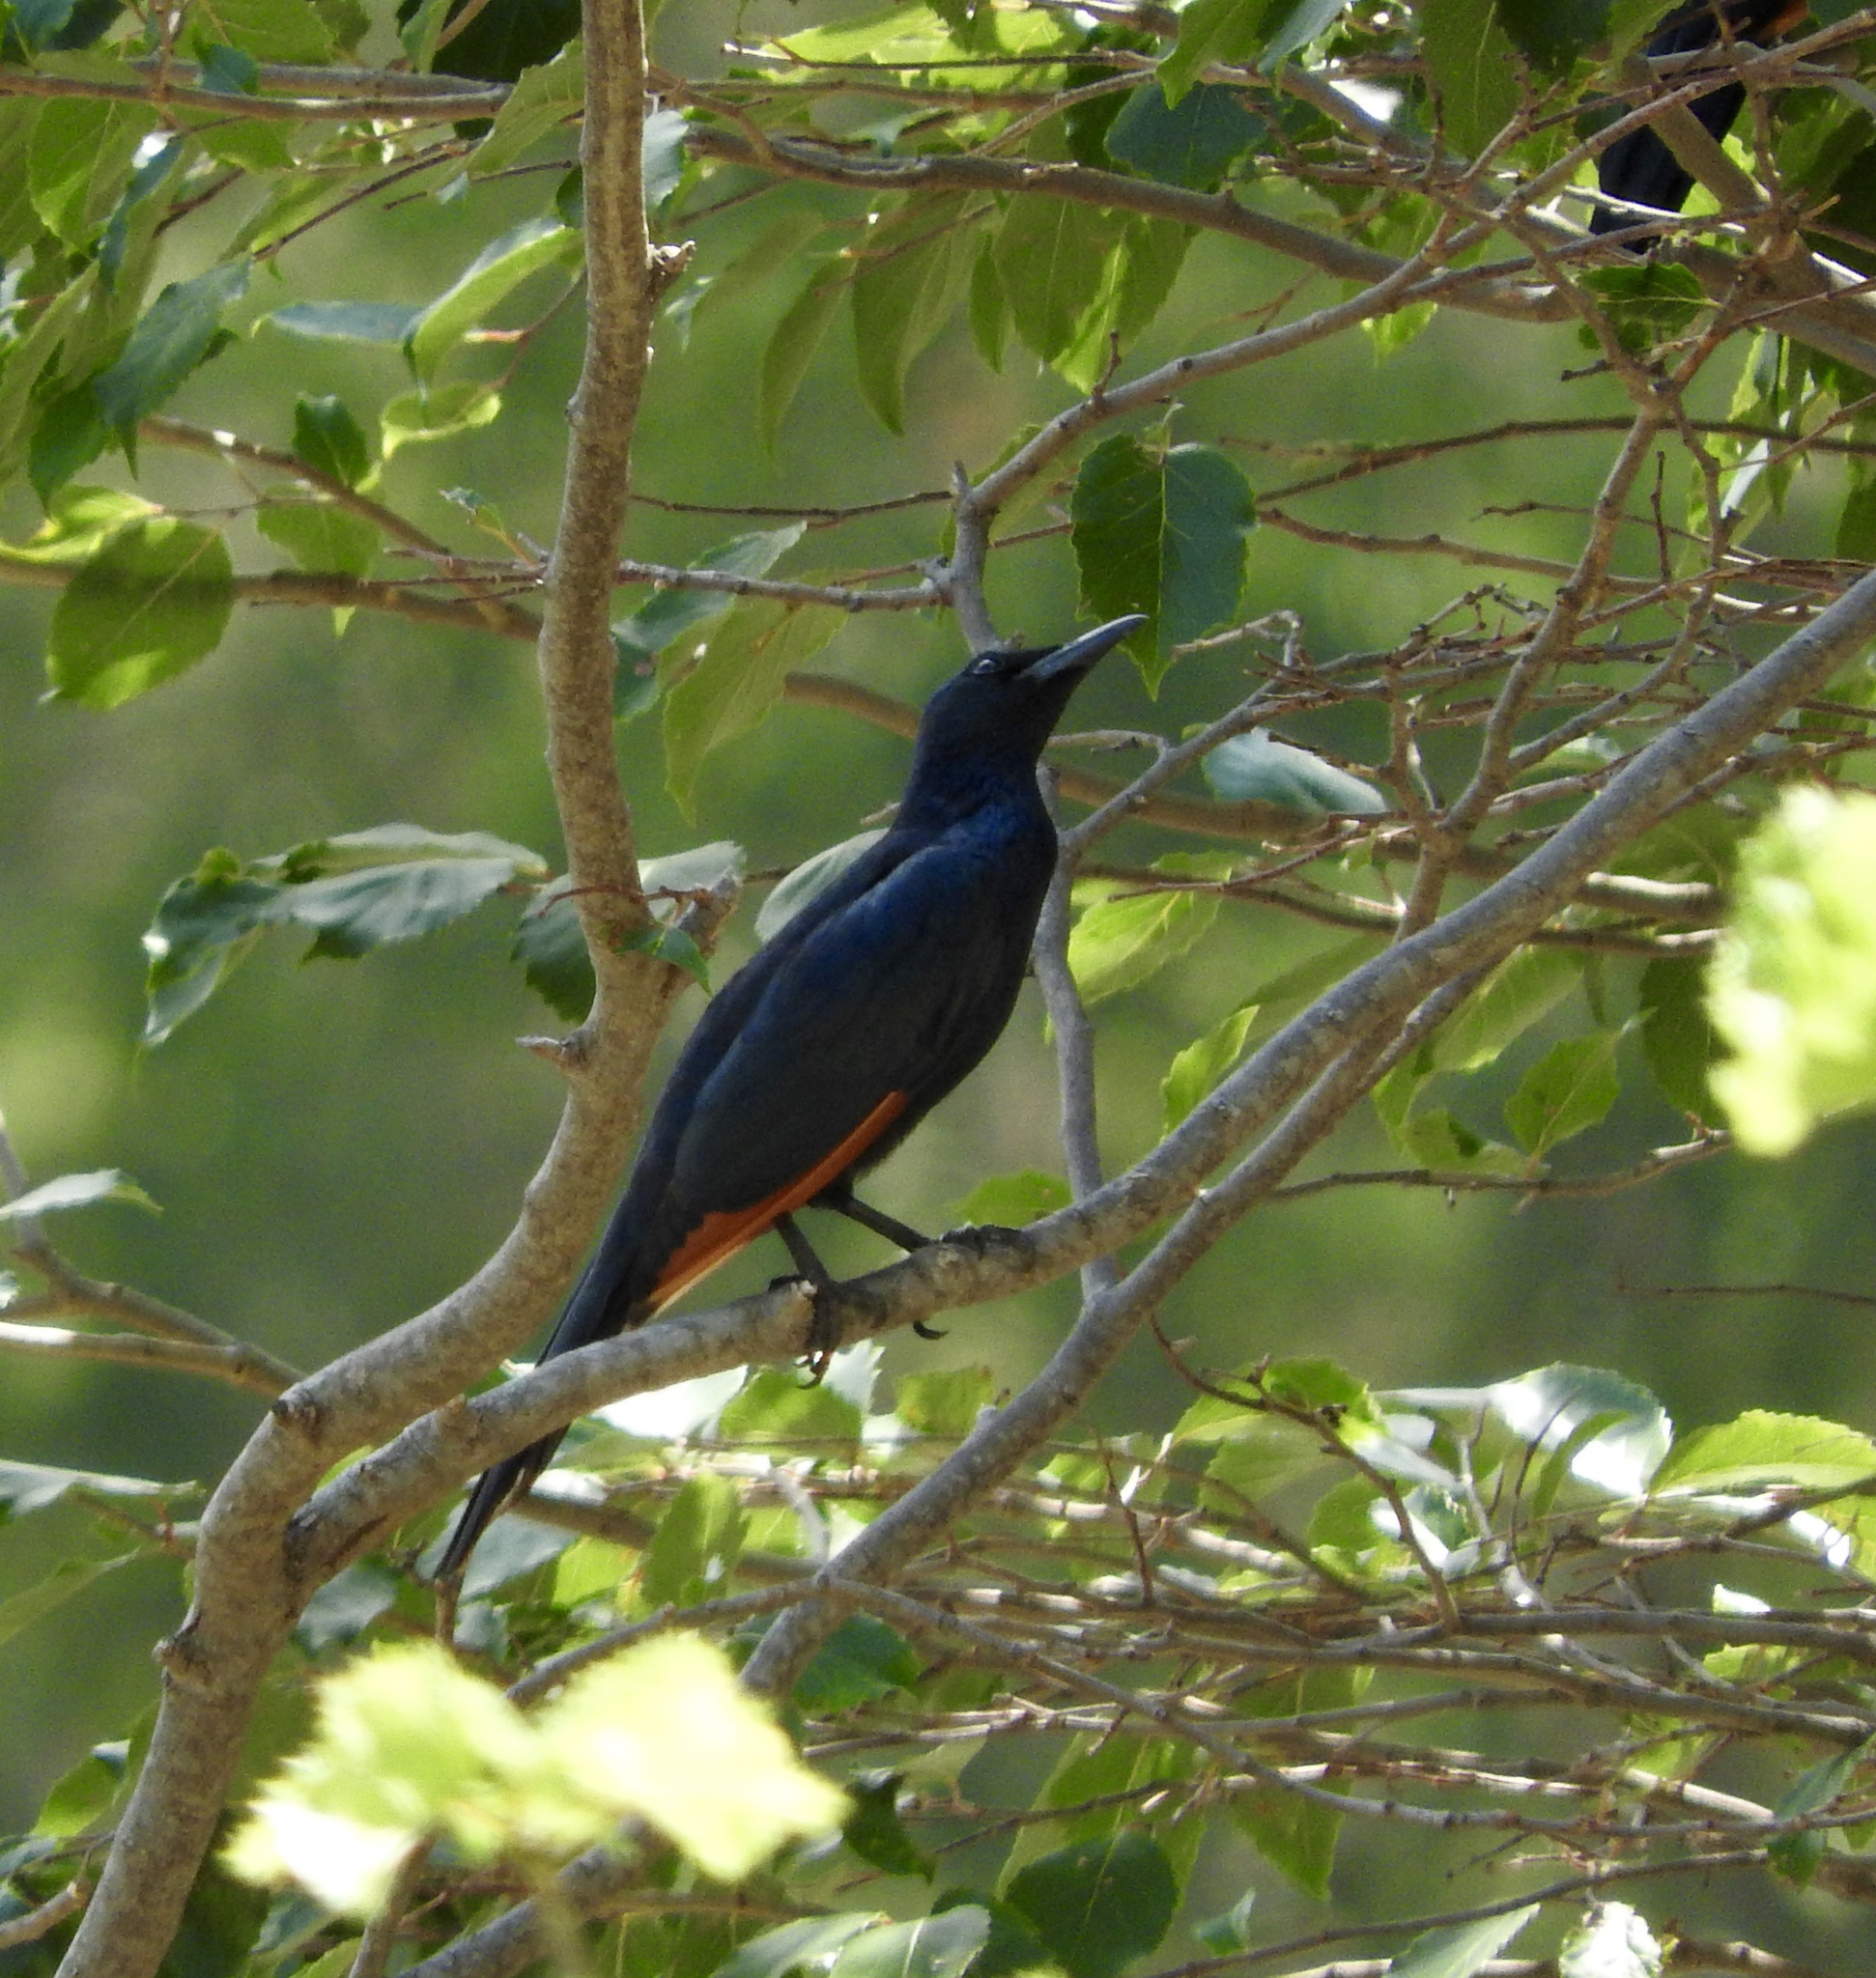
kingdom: Animalia
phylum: Chordata
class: Aves
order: Passeriformes
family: Sturnidae
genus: Onychognathus
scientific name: Onychognathus morio
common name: Red-winged starling
